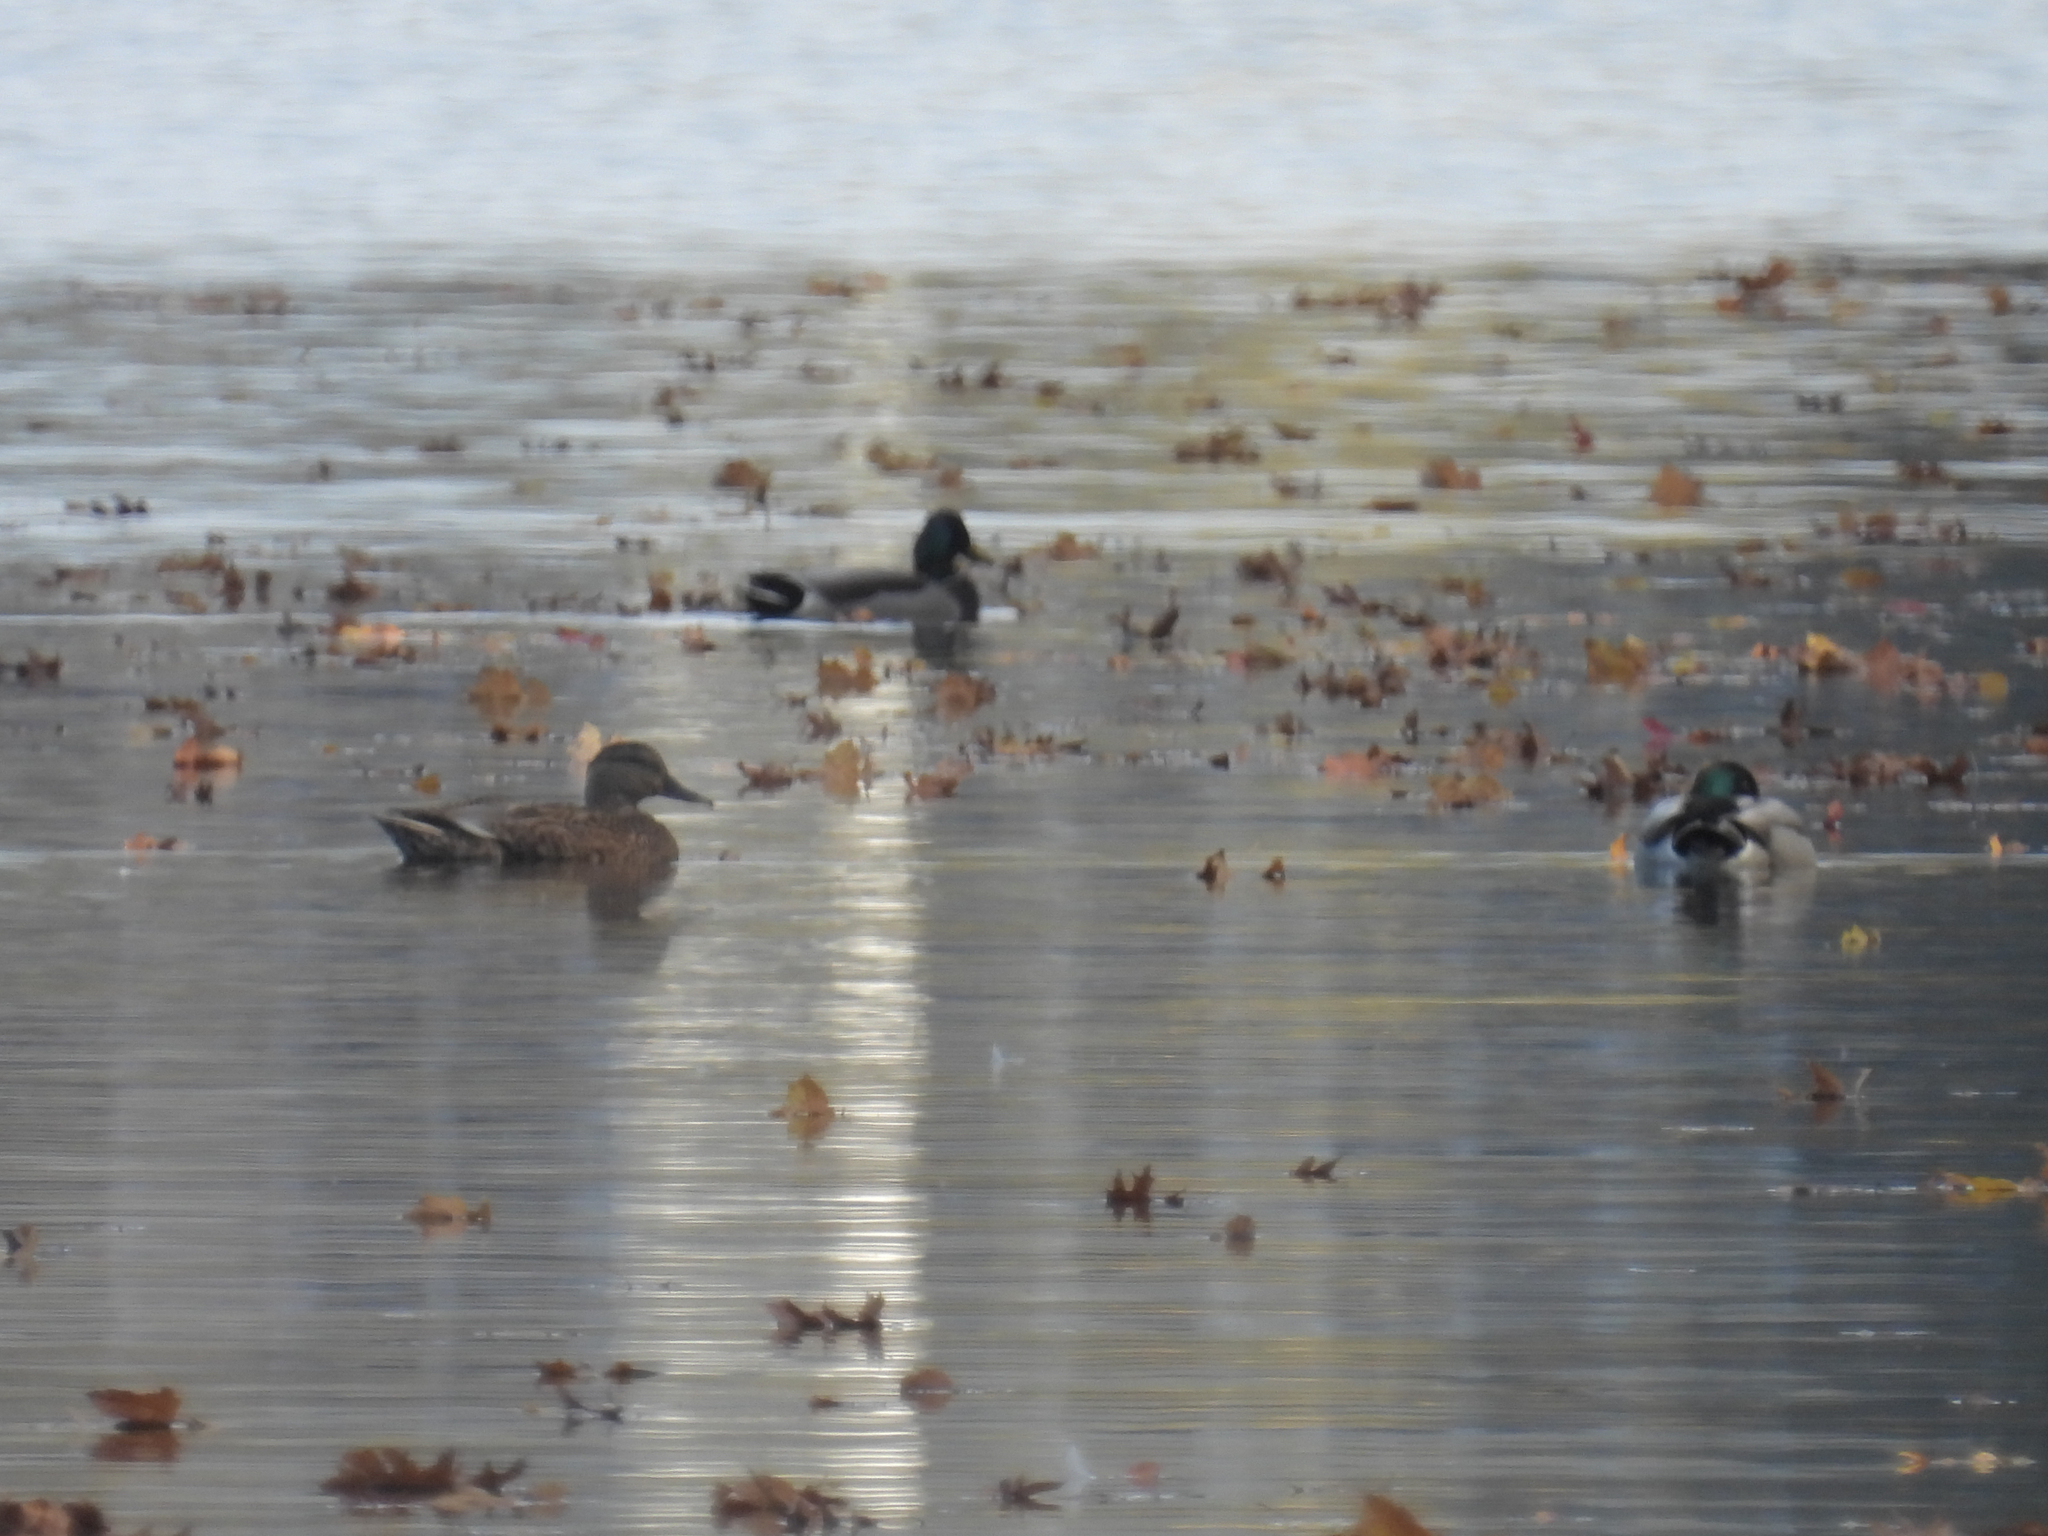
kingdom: Animalia
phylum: Chordata
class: Aves
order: Anseriformes
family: Anatidae
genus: Anas
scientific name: Anas platyrhynchos
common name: Mallard
